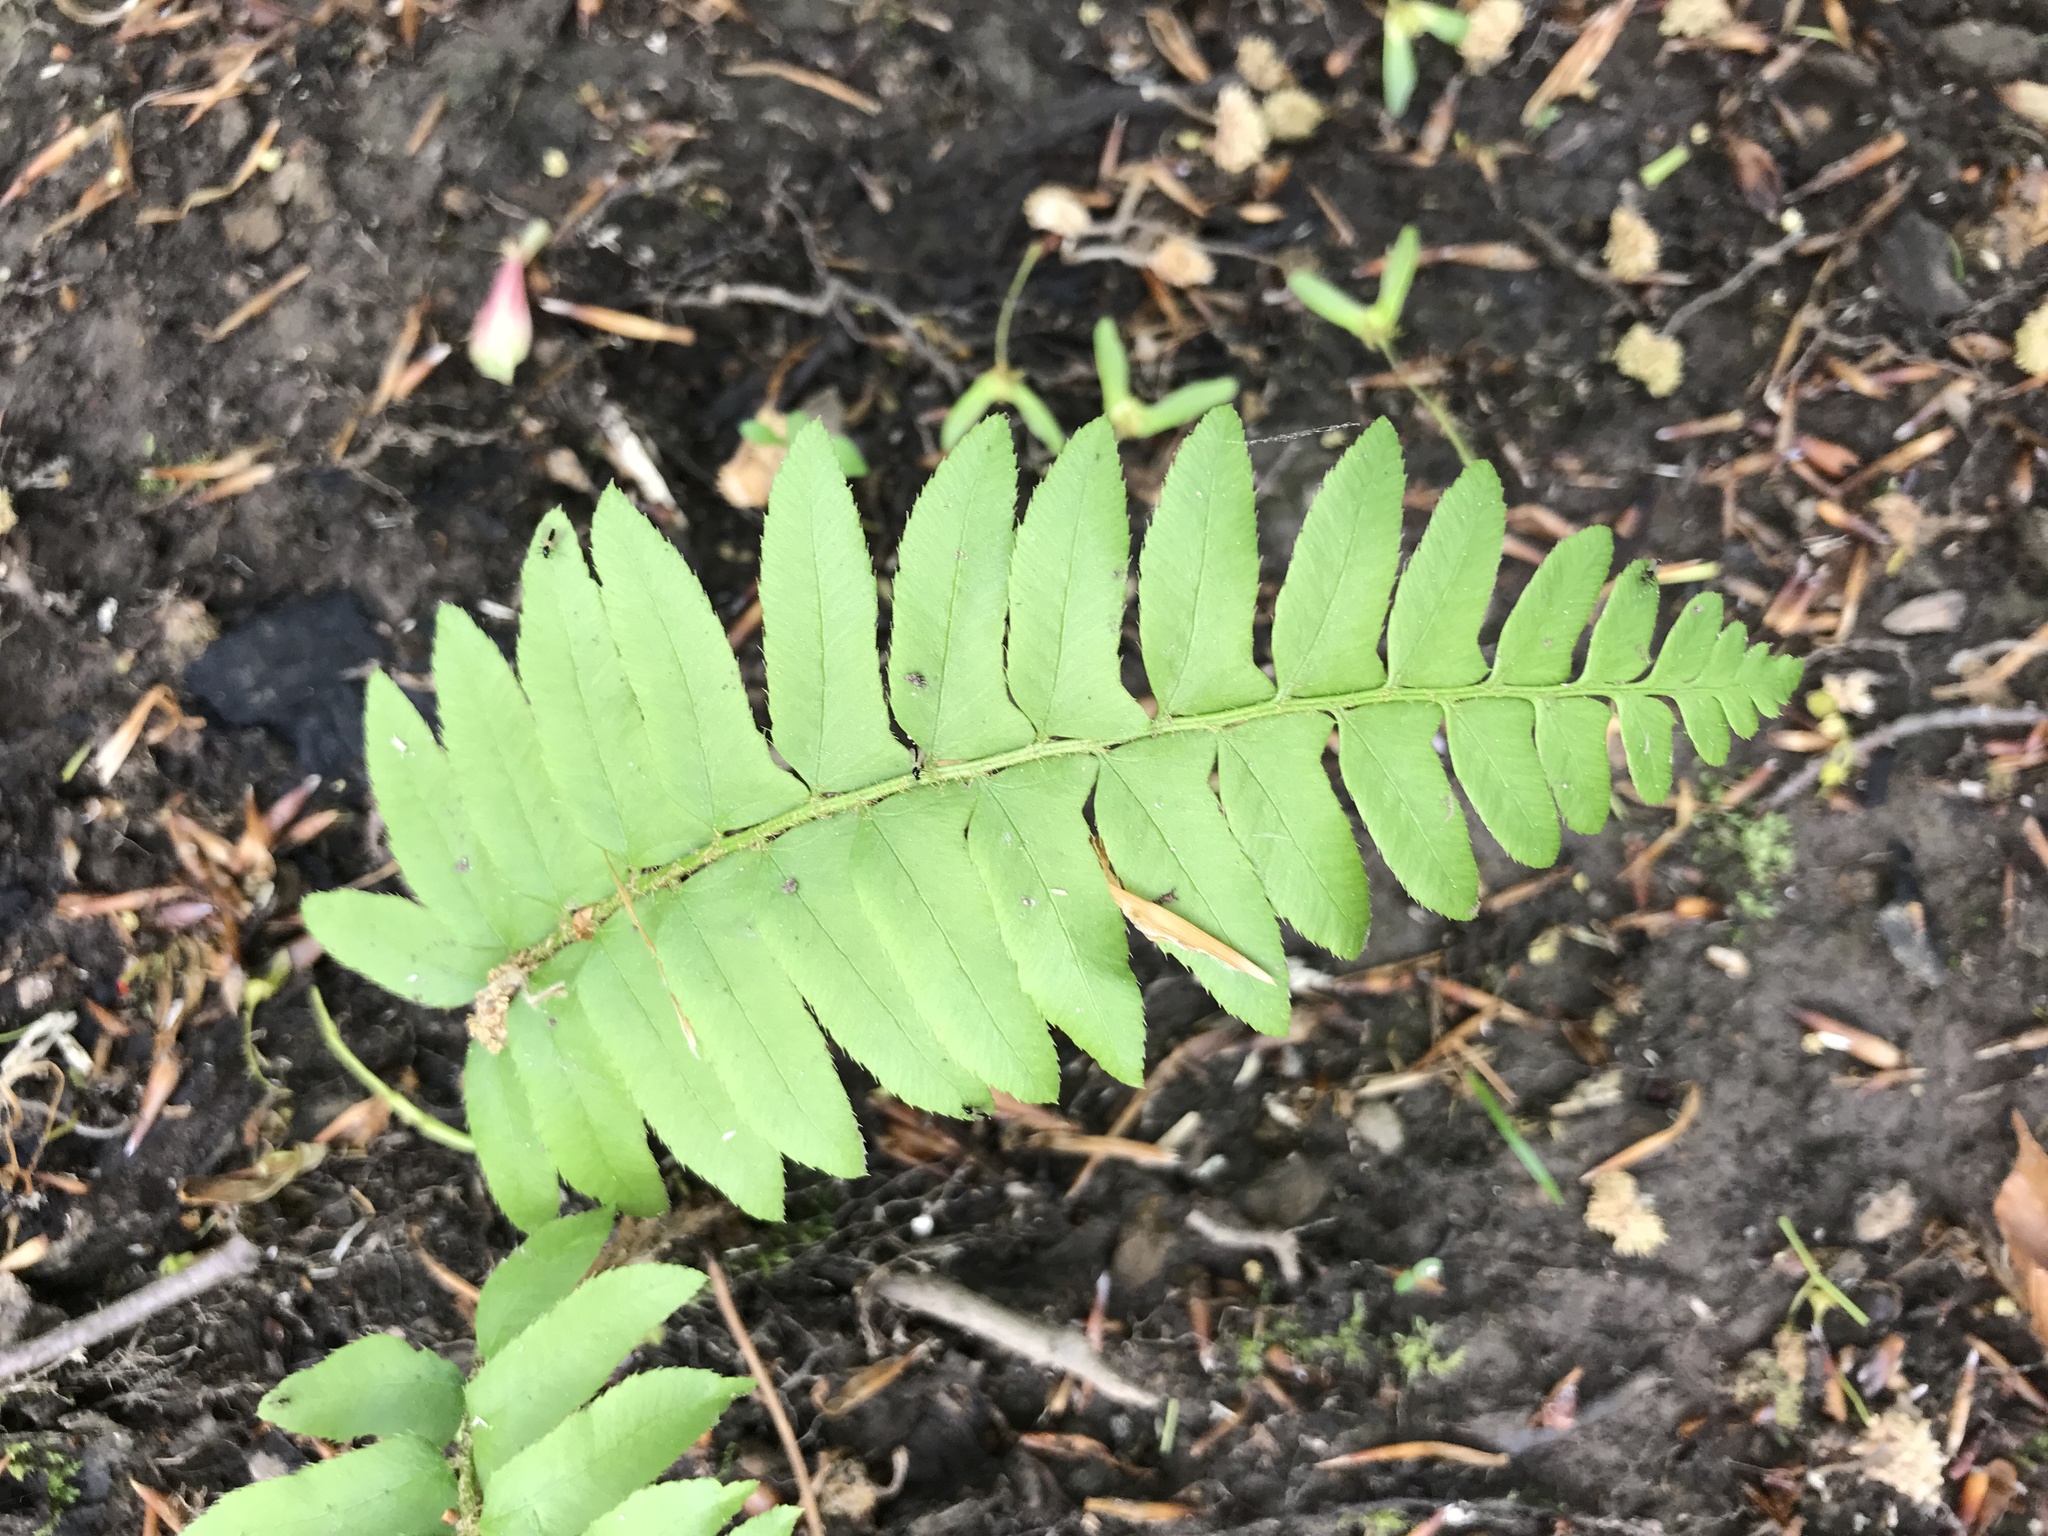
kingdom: Plantae
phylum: Tracheophyta
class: Polypodiopsida
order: Polypodiales
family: Dryopteridaceae
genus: Polystichum
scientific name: Polystichum acrostichoides
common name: Christmas fern
